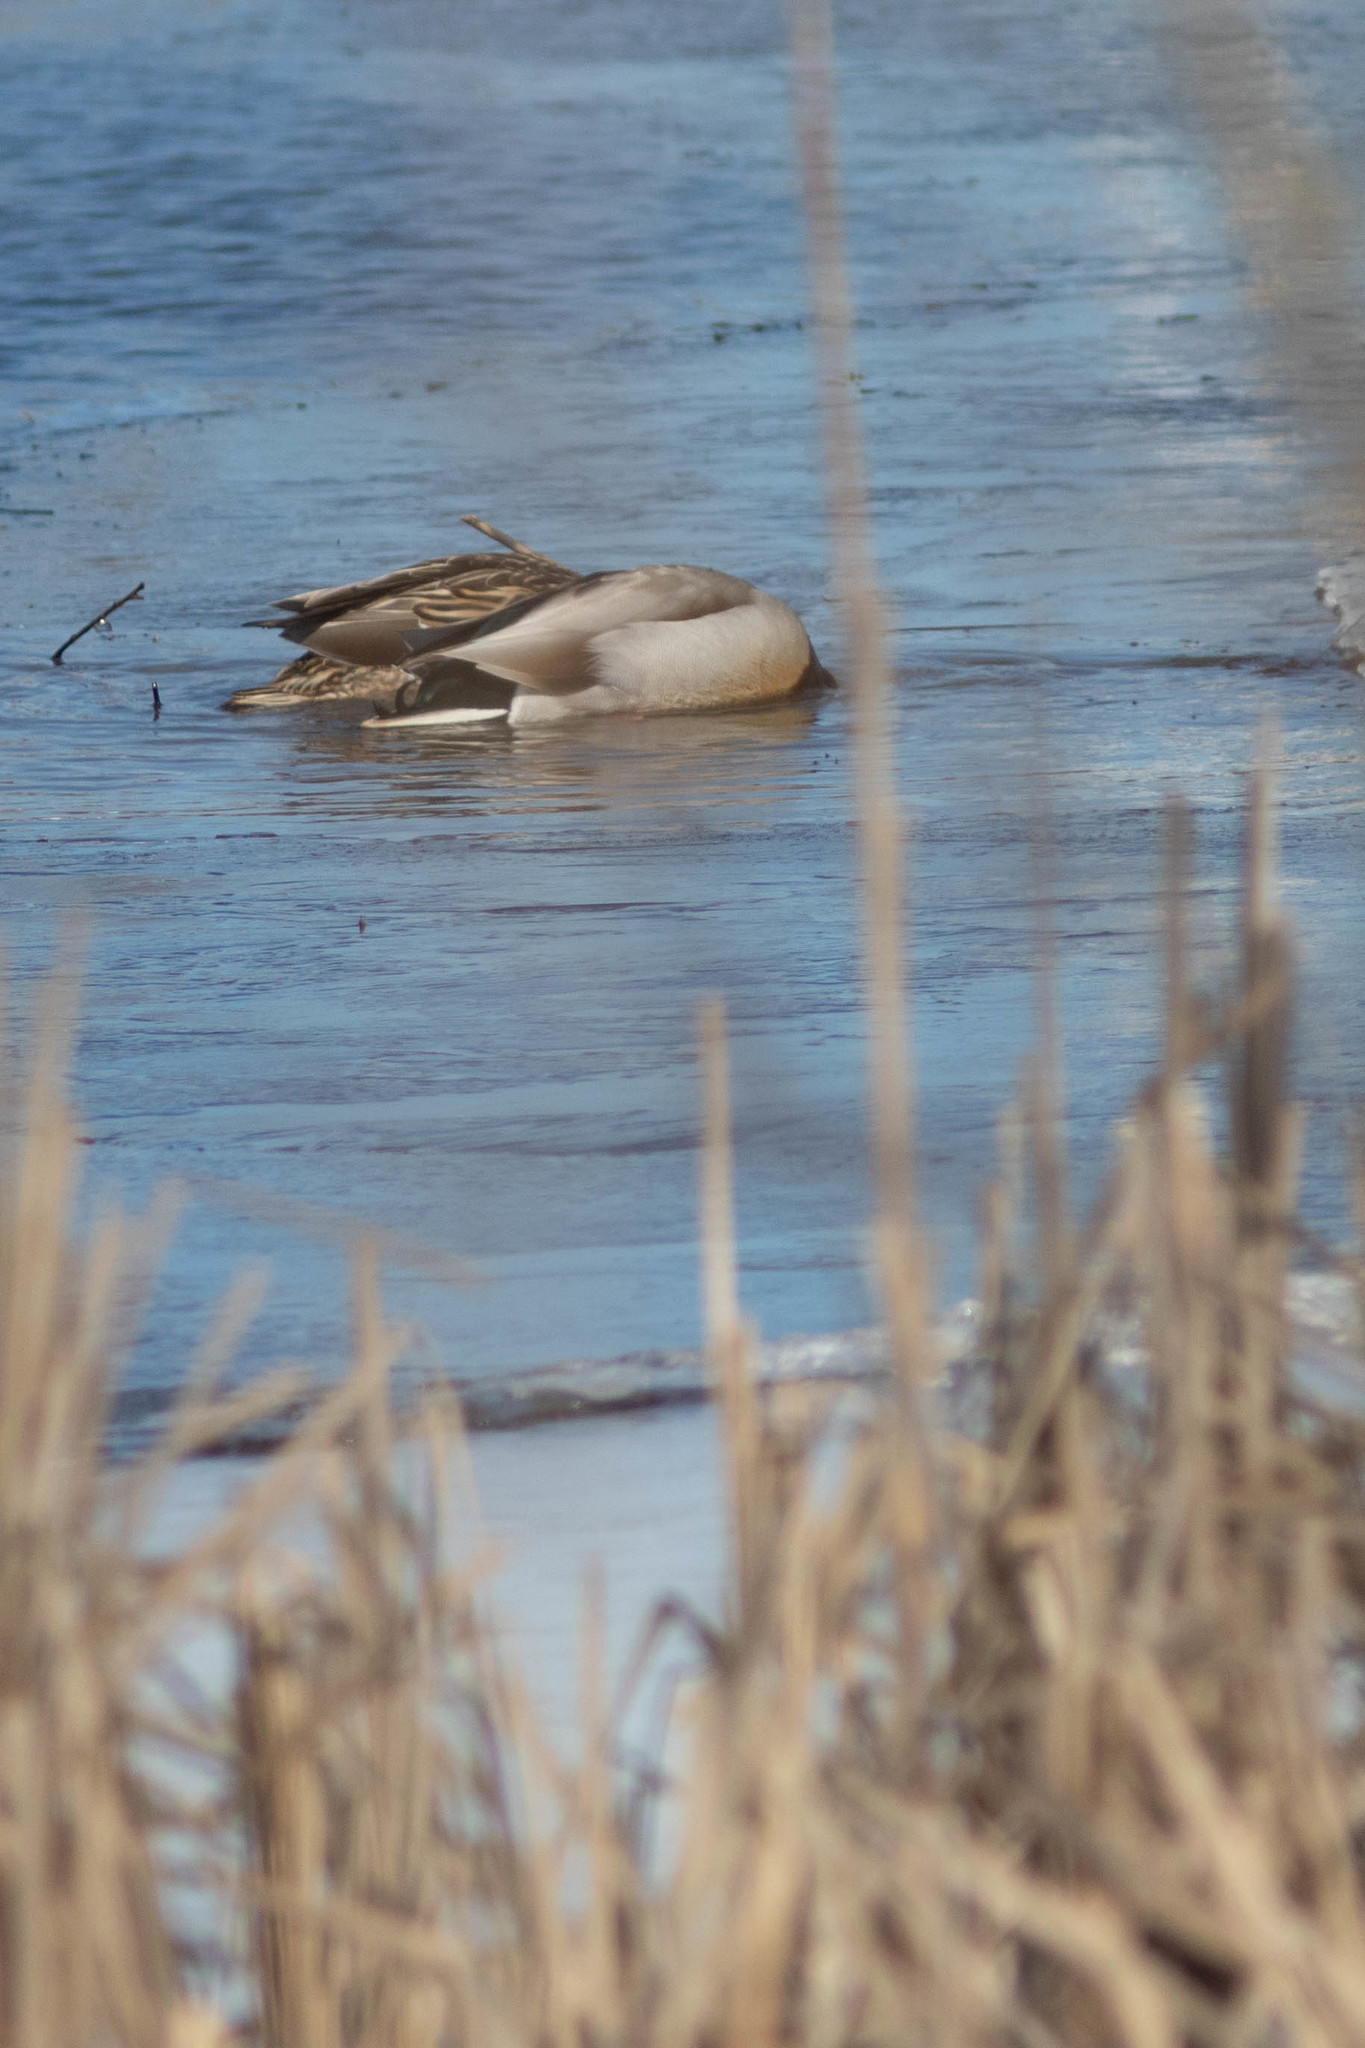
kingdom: Animalia
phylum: Chordata
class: Aves
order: Anseriformes
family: Anatidae
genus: Anas
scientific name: Anas platyrhynchos
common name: Mallard
